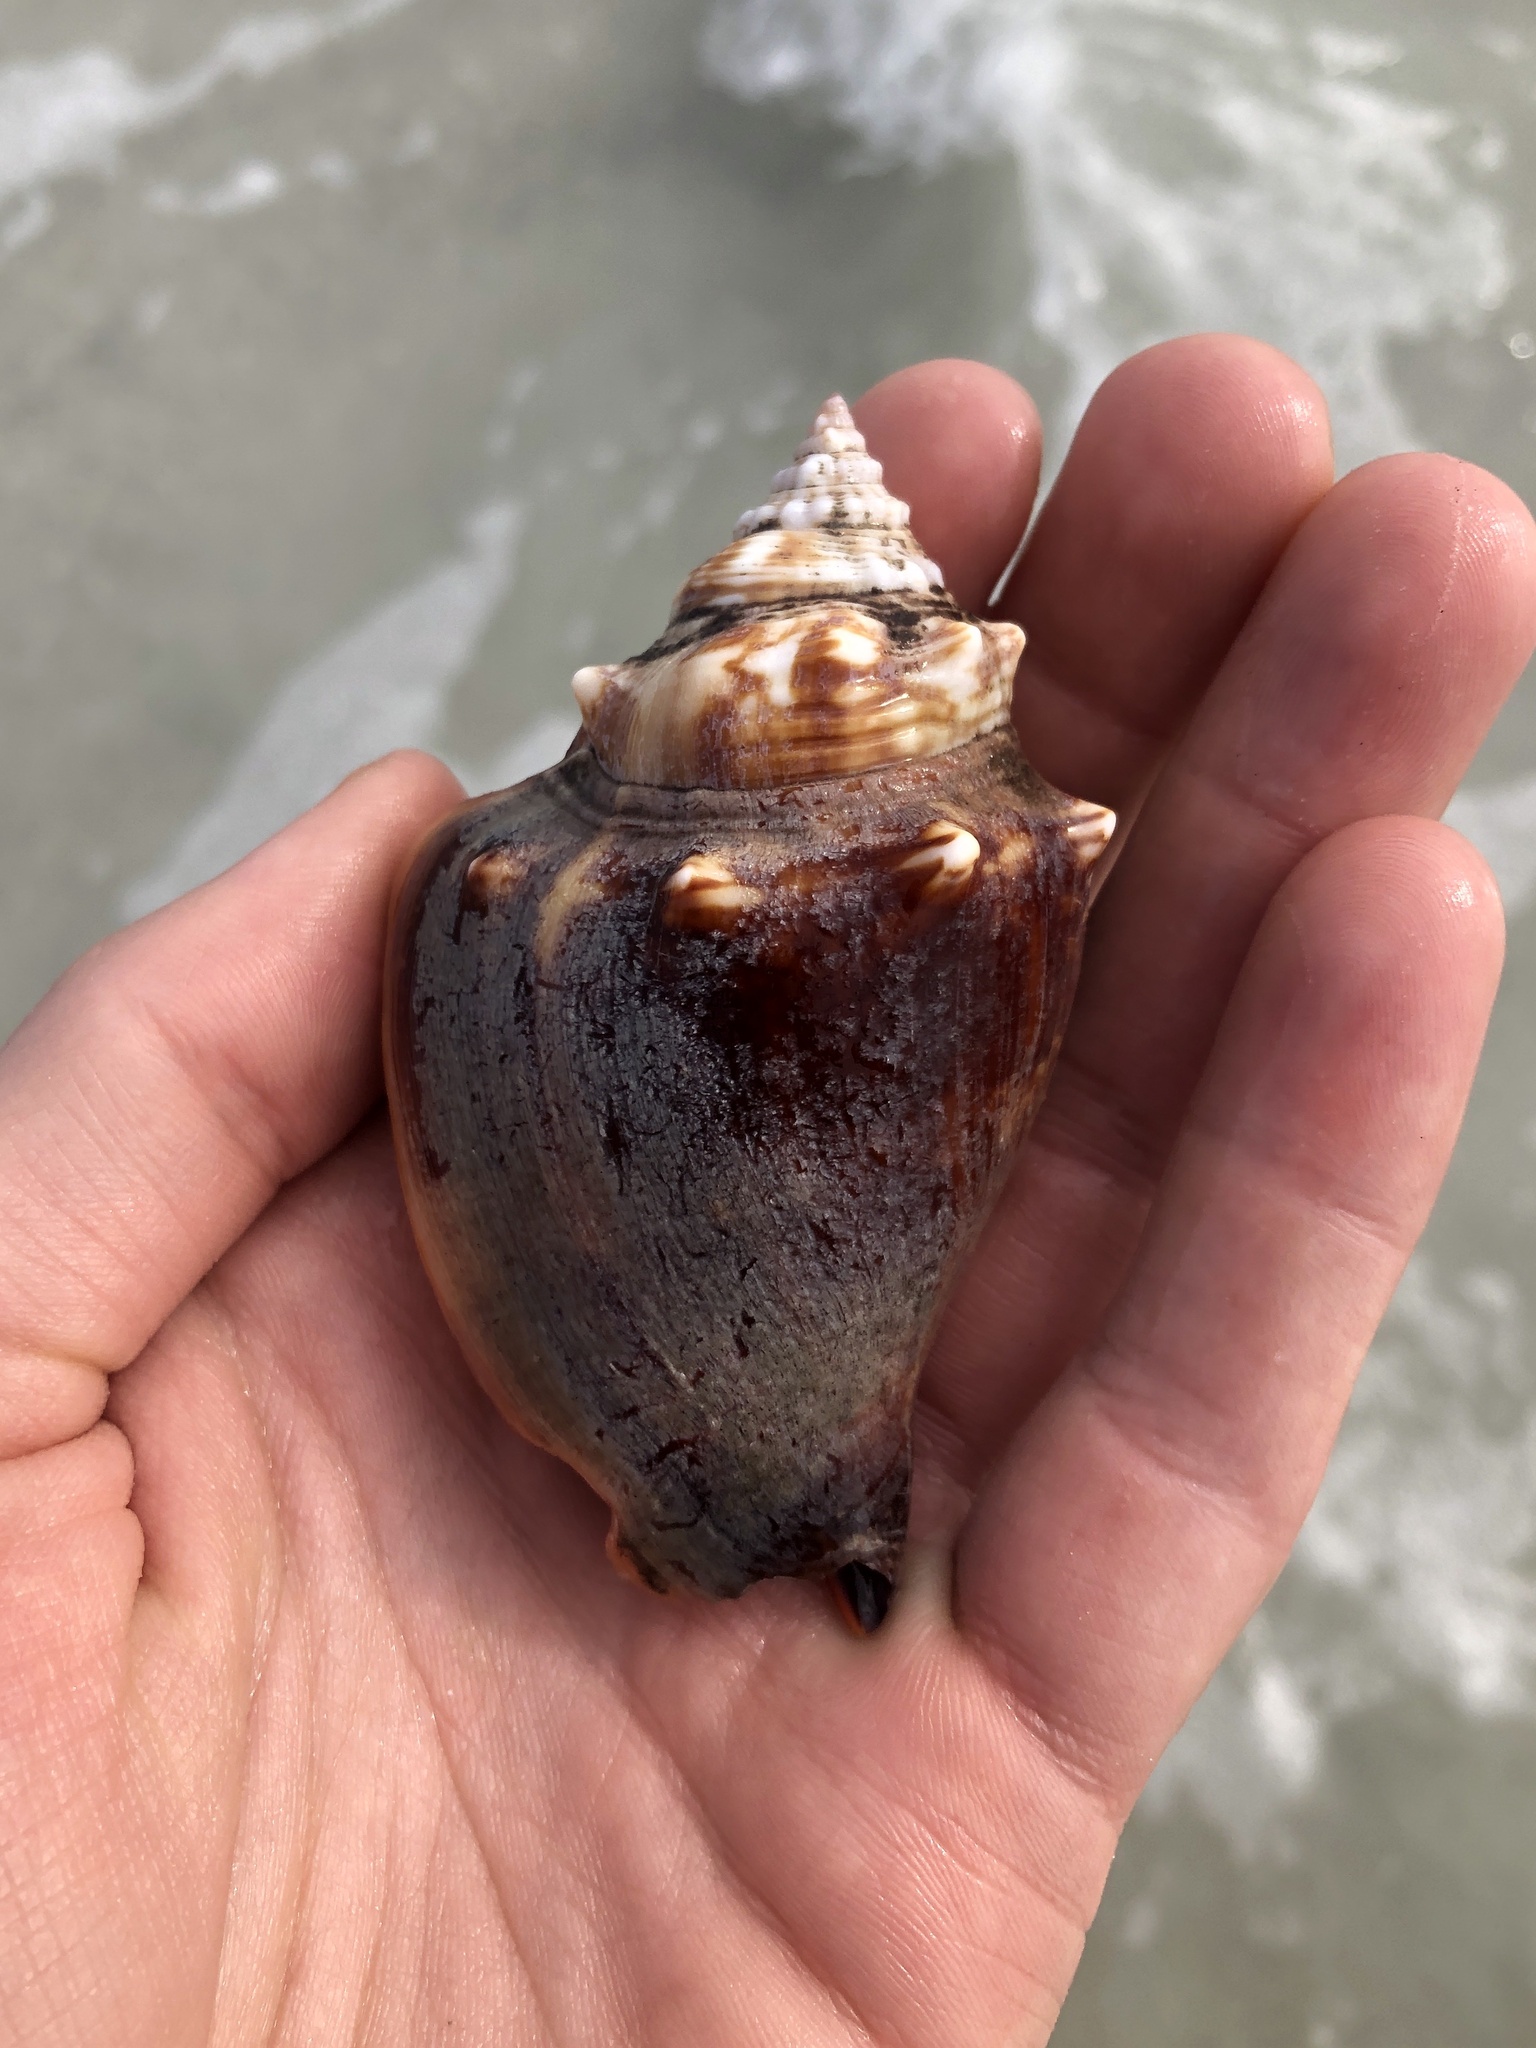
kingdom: Animalia
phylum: Mollusca
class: Gastropoda
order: Littorinimorpha
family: Strombidae
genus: Strombus
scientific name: Strombus alatus
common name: Florida fighting conch
